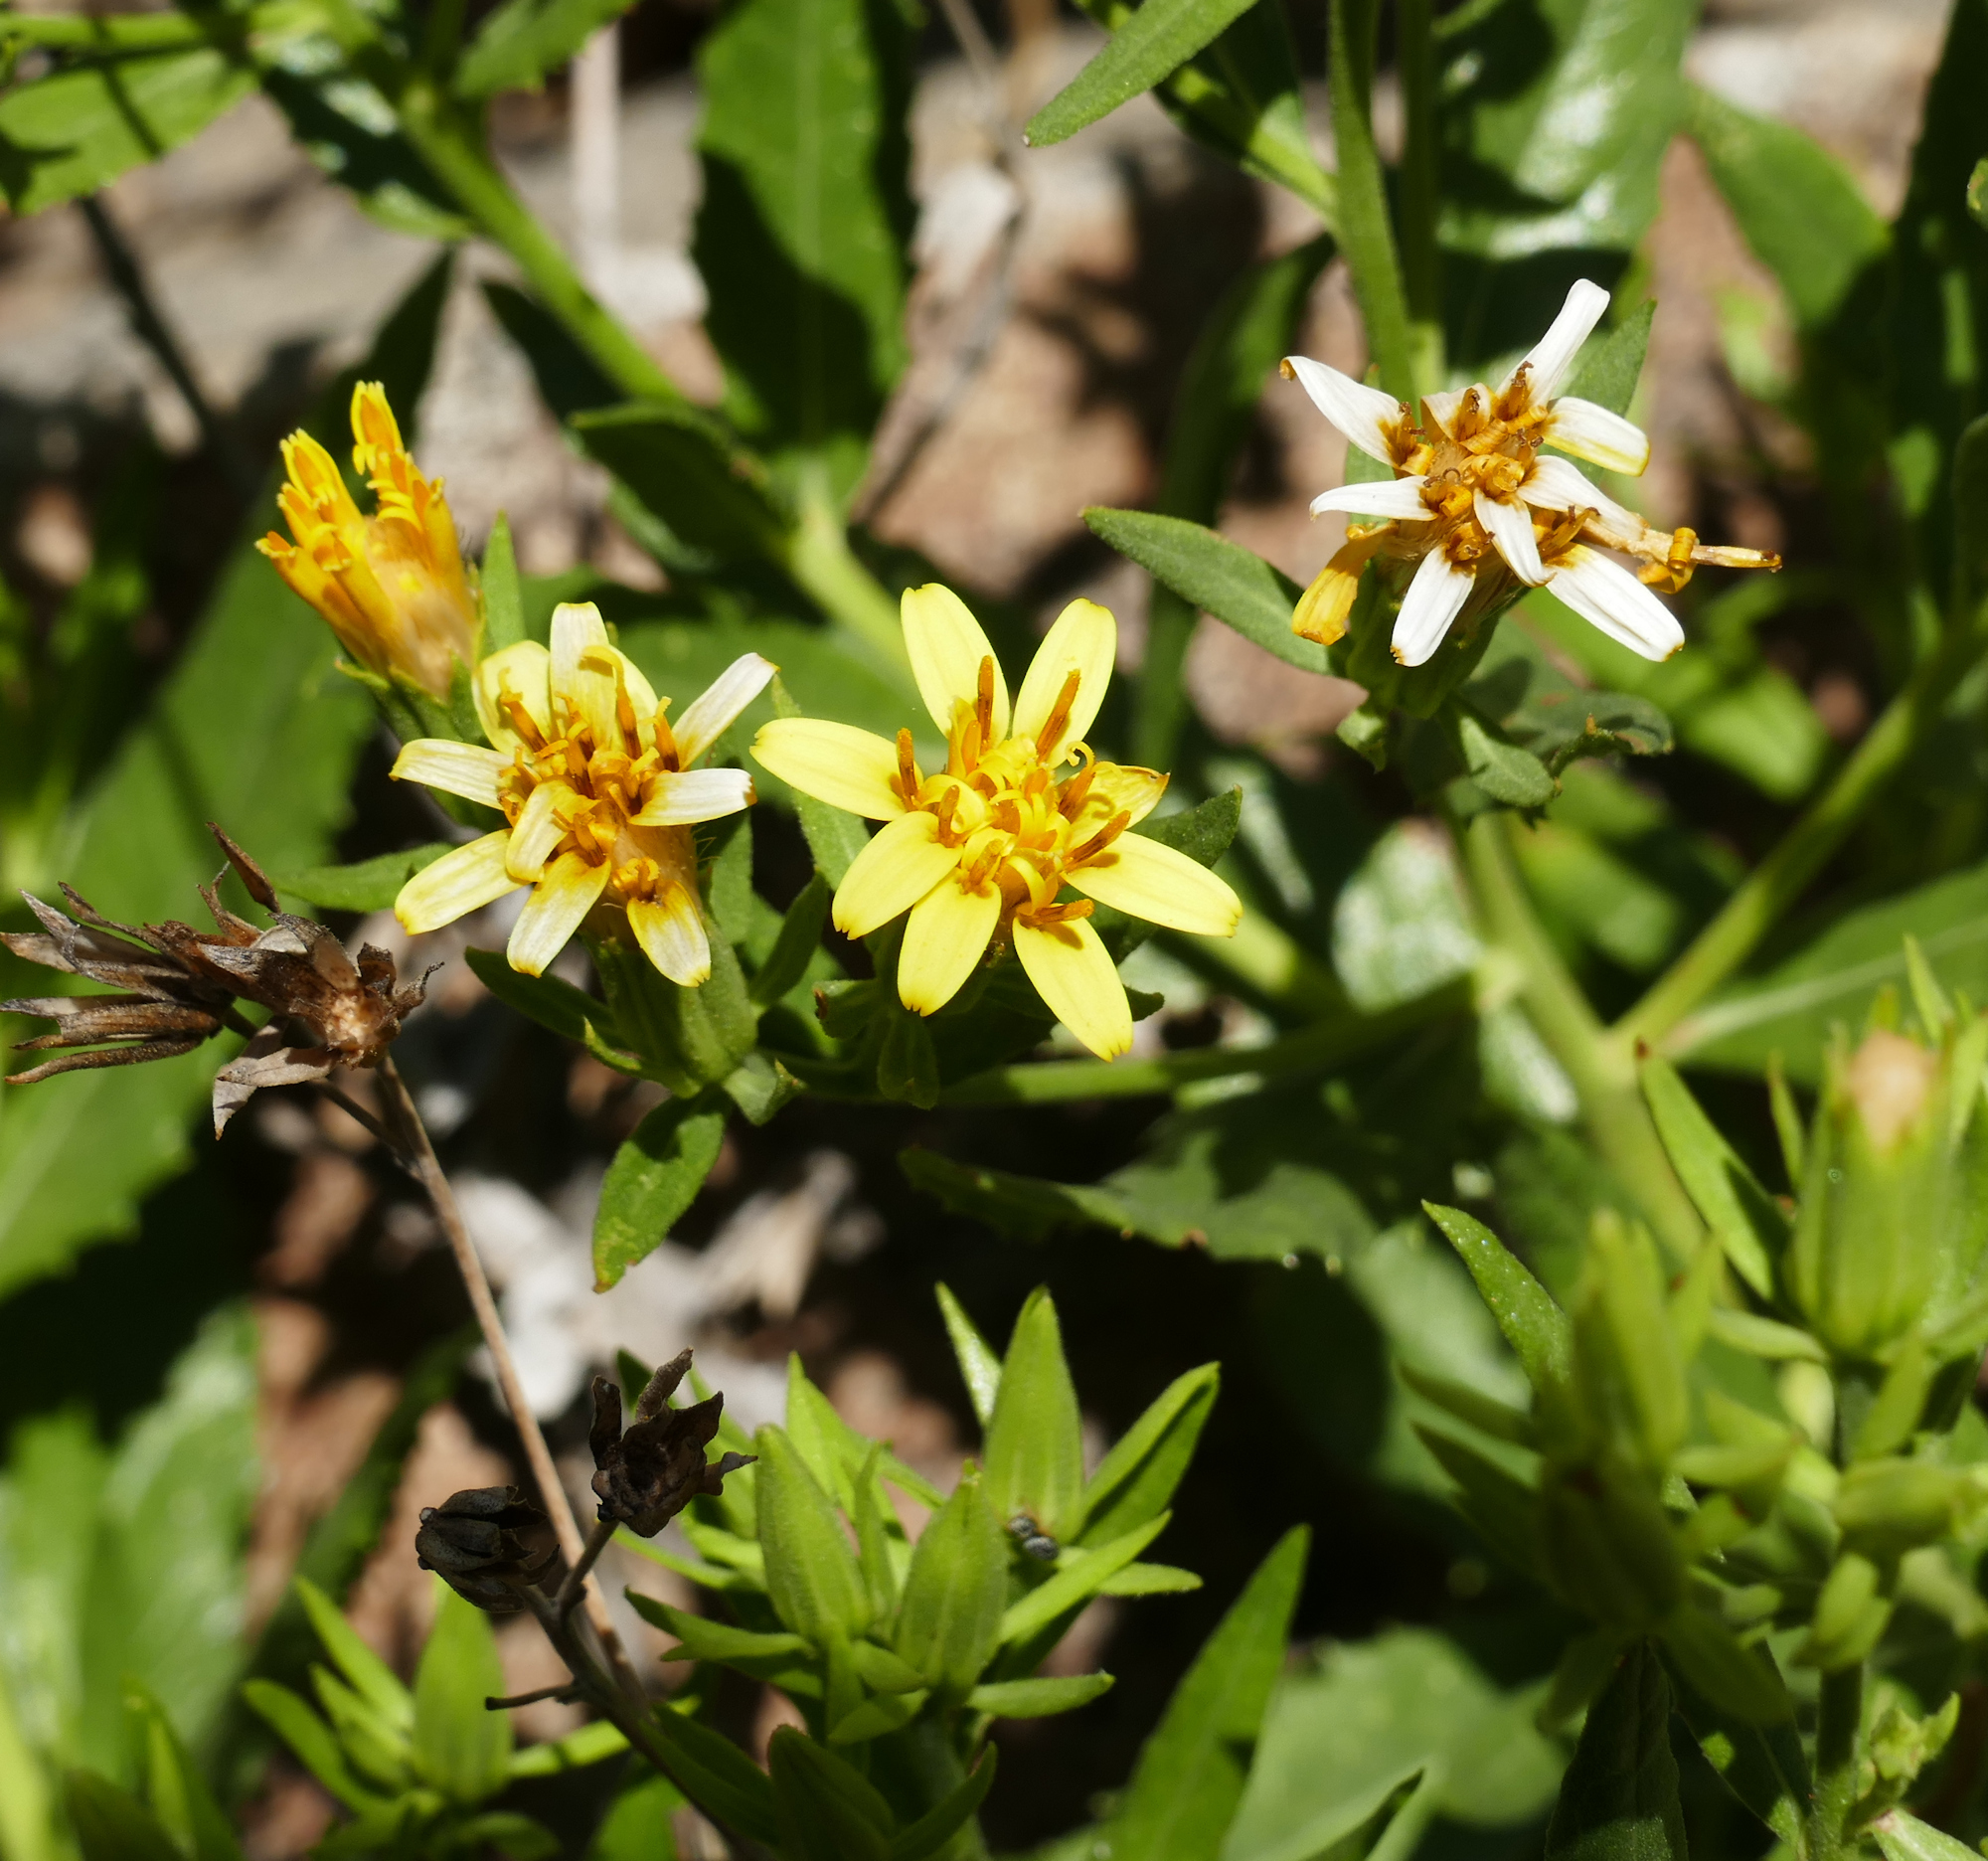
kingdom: Plantae
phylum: Tracheophyta
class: Magnoliopsida
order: Asterales
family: Asteraceae
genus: Trixis
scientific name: Trixis californica
